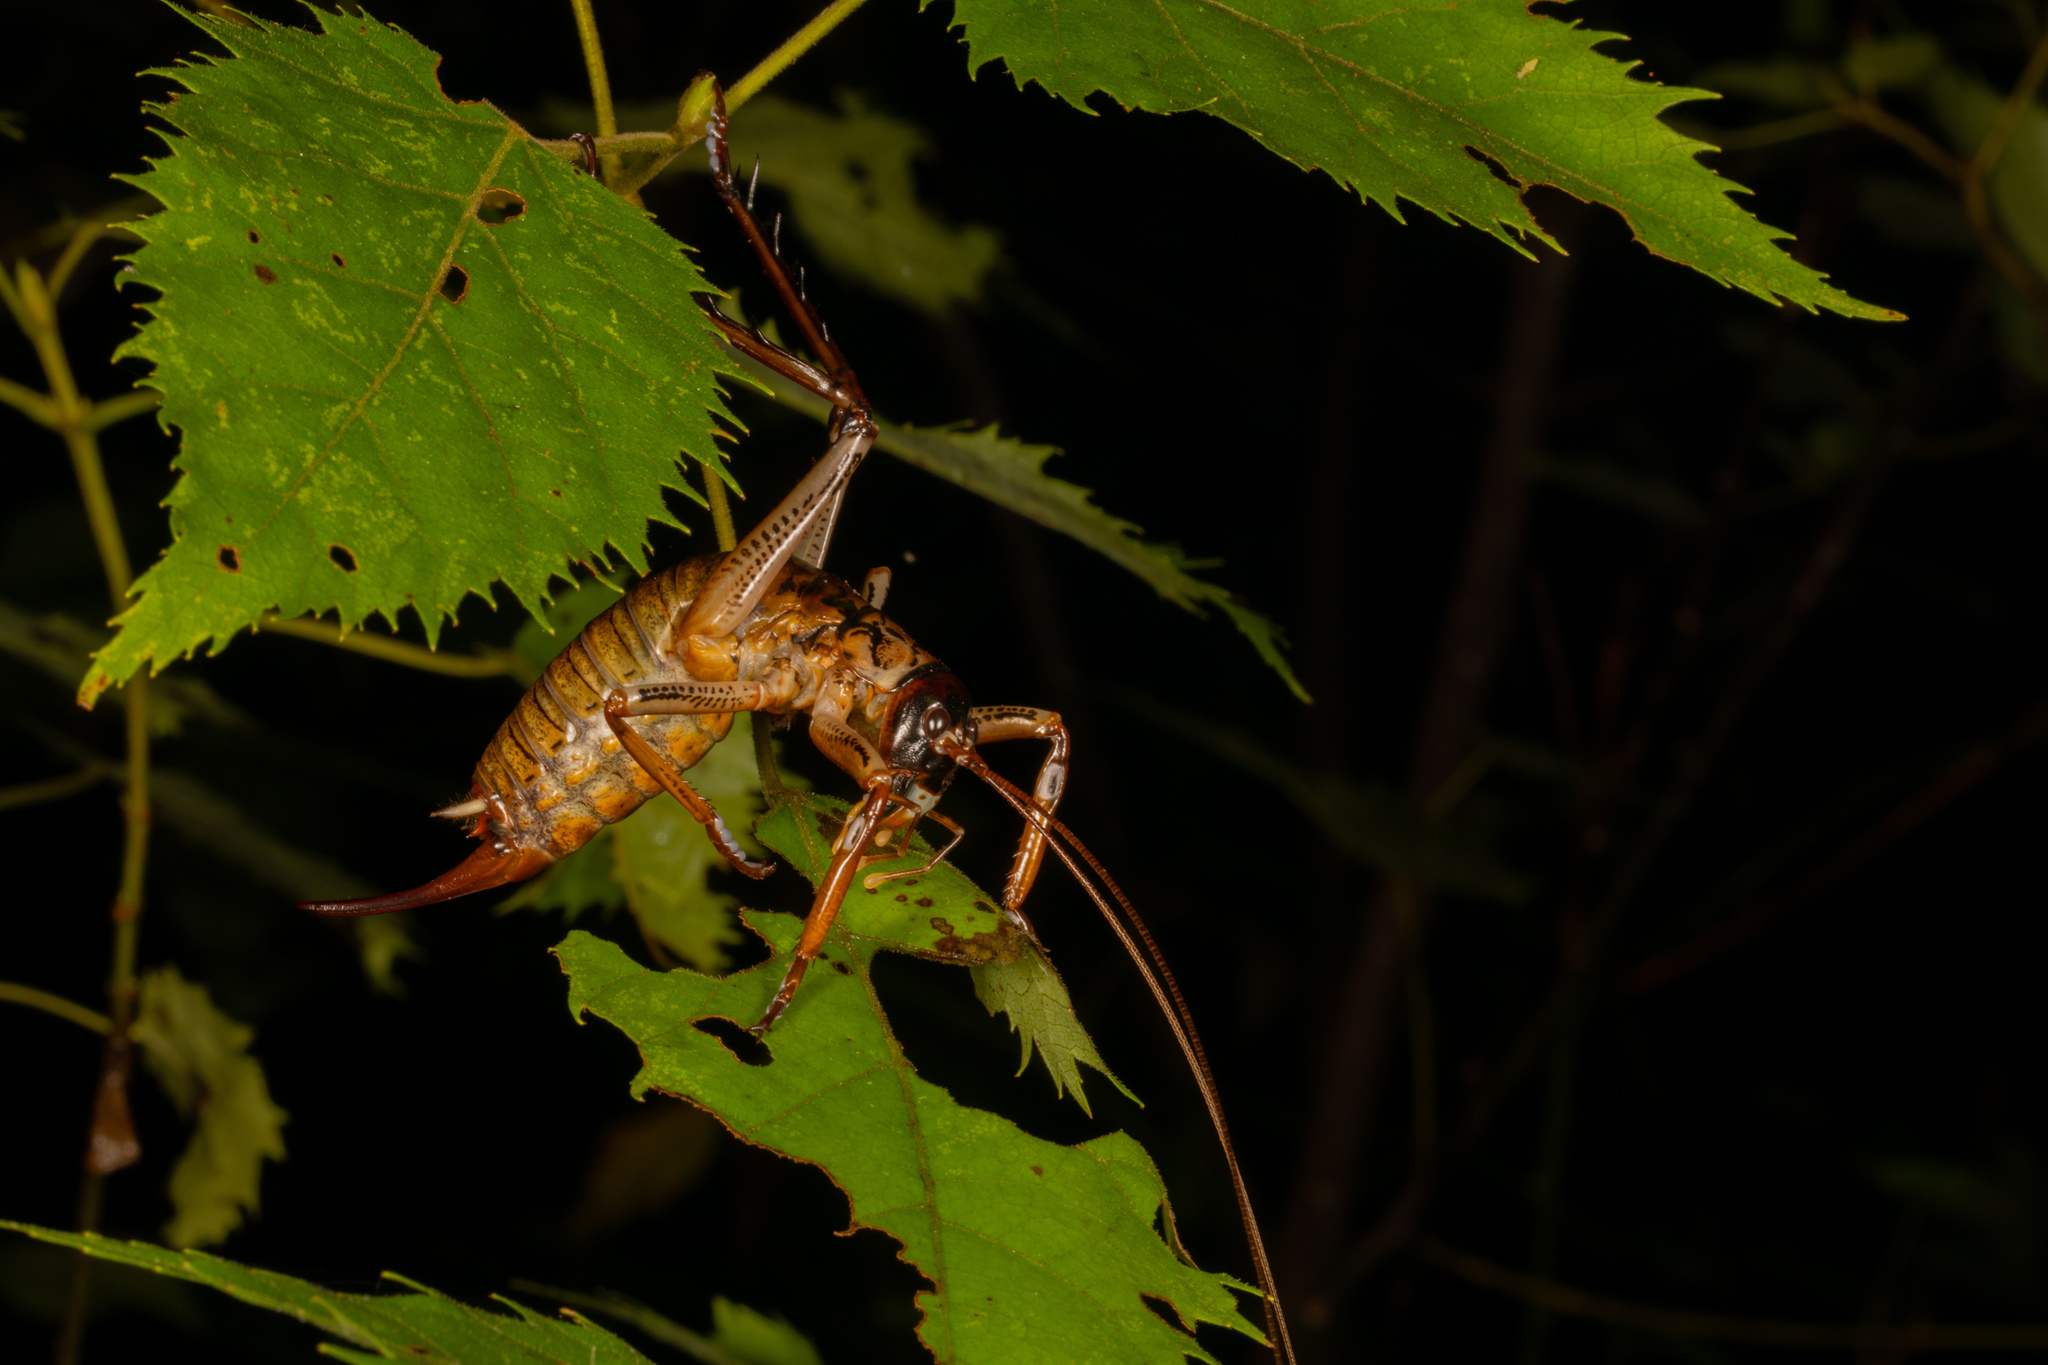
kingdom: Animalia
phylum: Arthropoda
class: Insecta
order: Orthoptera
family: Anostostomatidae
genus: Hemideina
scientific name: Hemideina thoracica
